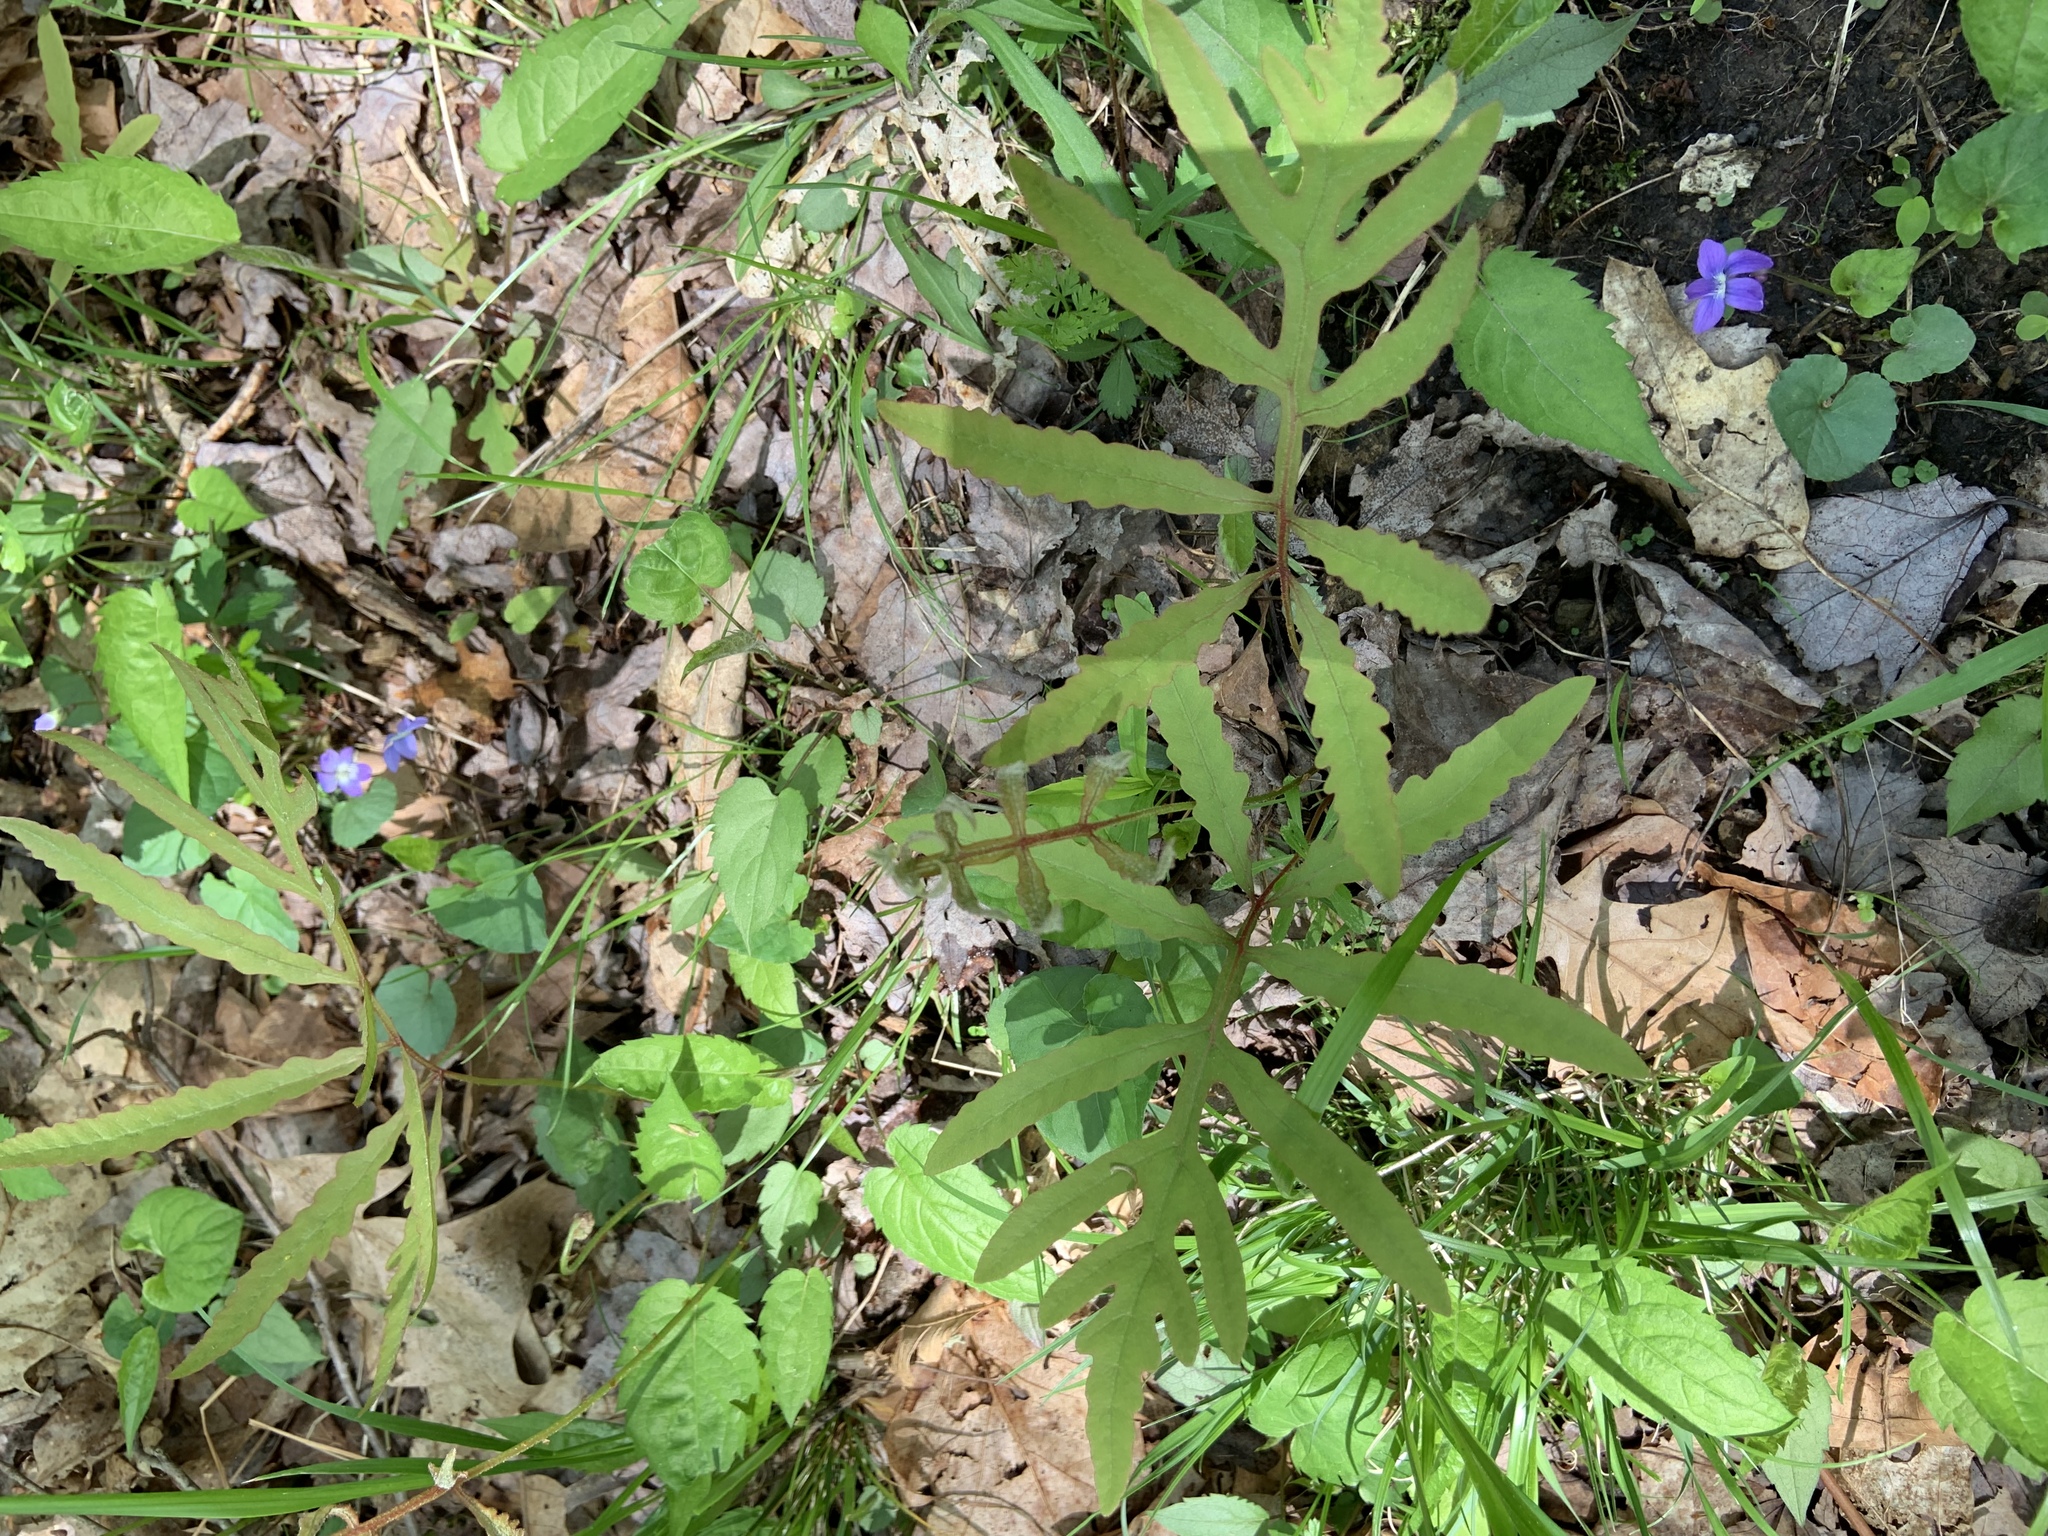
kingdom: Plantae
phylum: Tracheophyta
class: Polypodiopsida
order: Polypodiales
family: Onocleaceae
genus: Onoclea
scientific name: Onoclea sensibilis
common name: Sensitive fern
